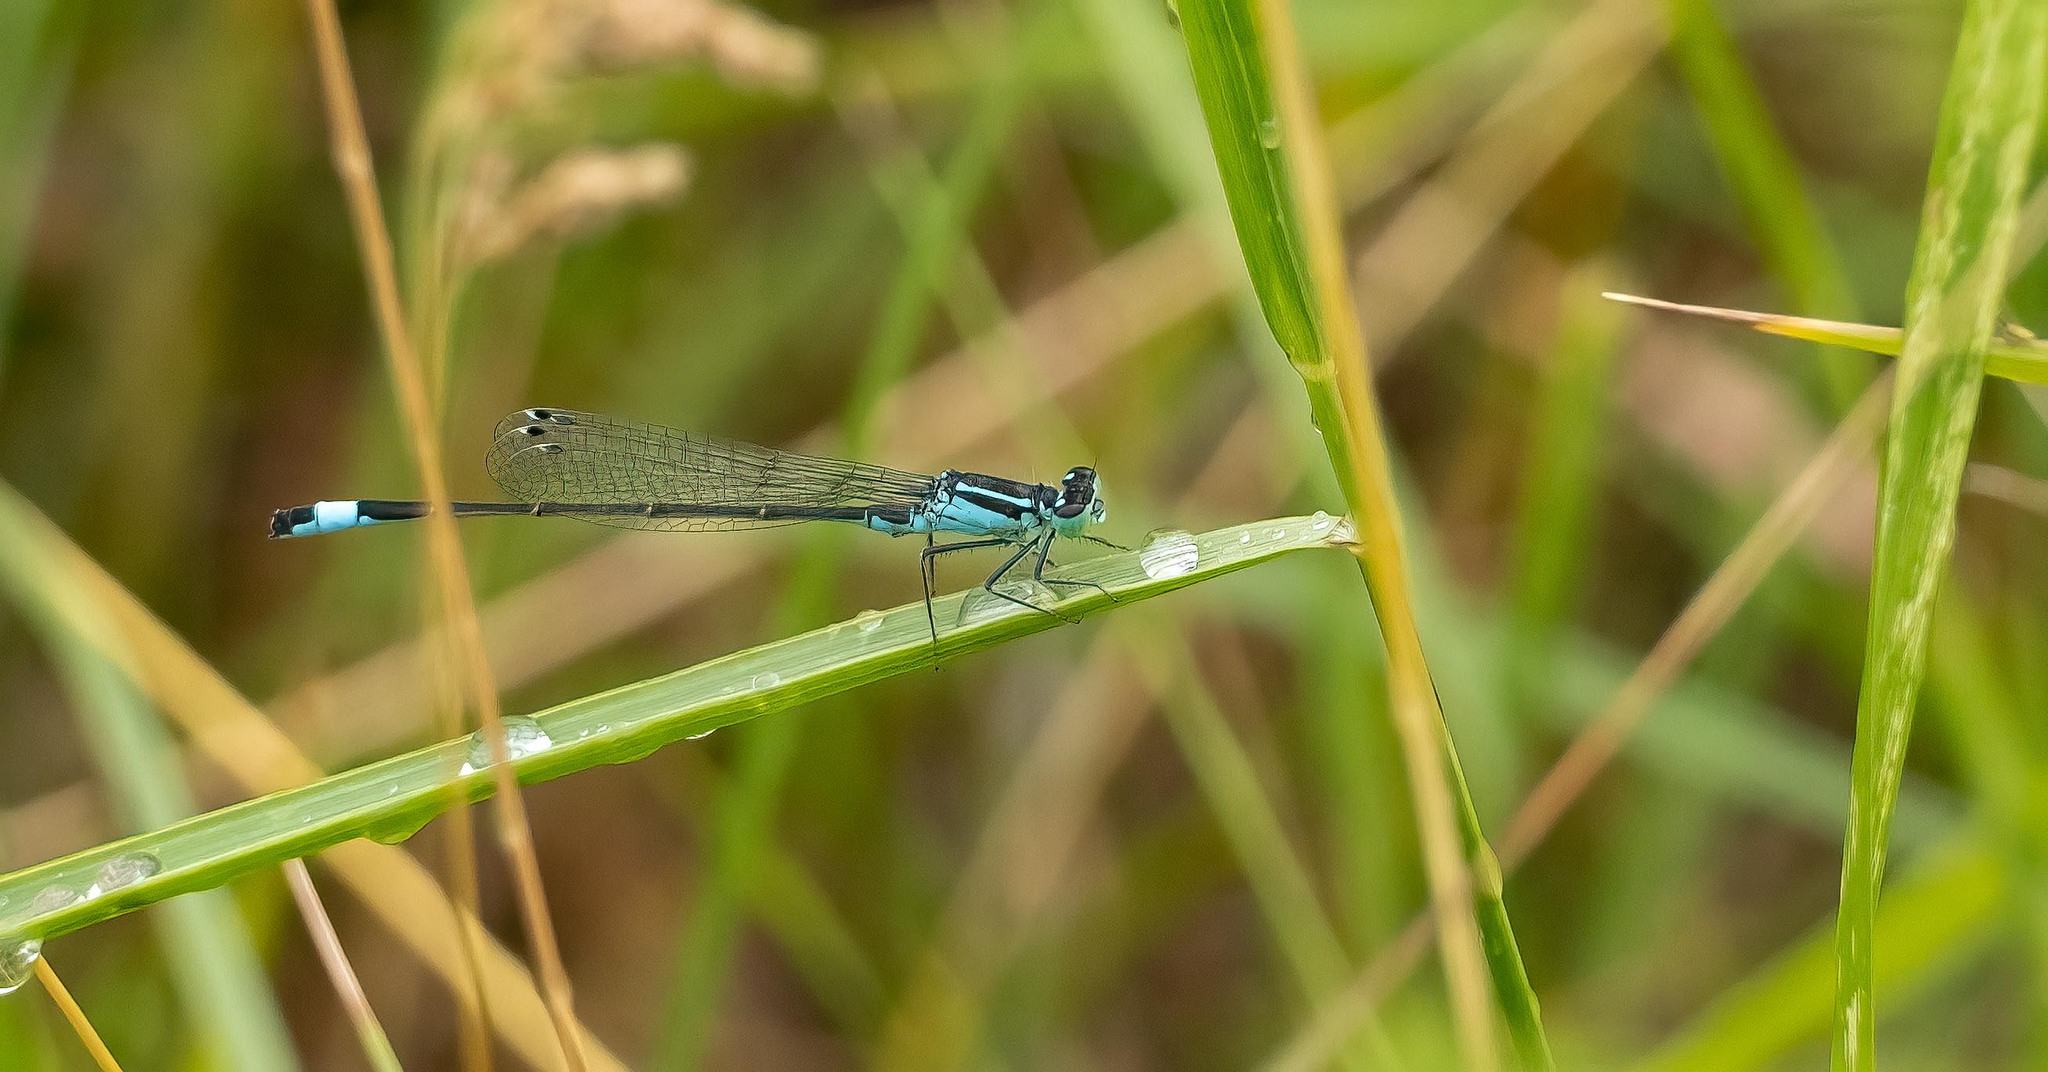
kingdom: Animalia
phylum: Arthropoda
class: Insecta
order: Odonata
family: Coenagrionidae
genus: Ischnura
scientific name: Ischnura elegans
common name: Blue-tailed damselfly
